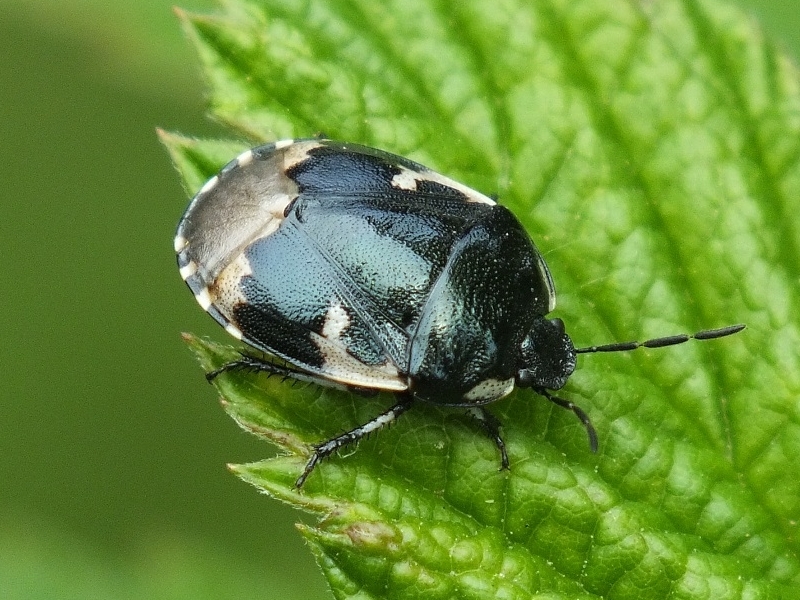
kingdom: Animalia
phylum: Arthropoda
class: Insecta
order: Hemiptera
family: Cydnidae
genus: Tritomegas
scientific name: Tritomegas bicolor
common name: Pied shieldbug
